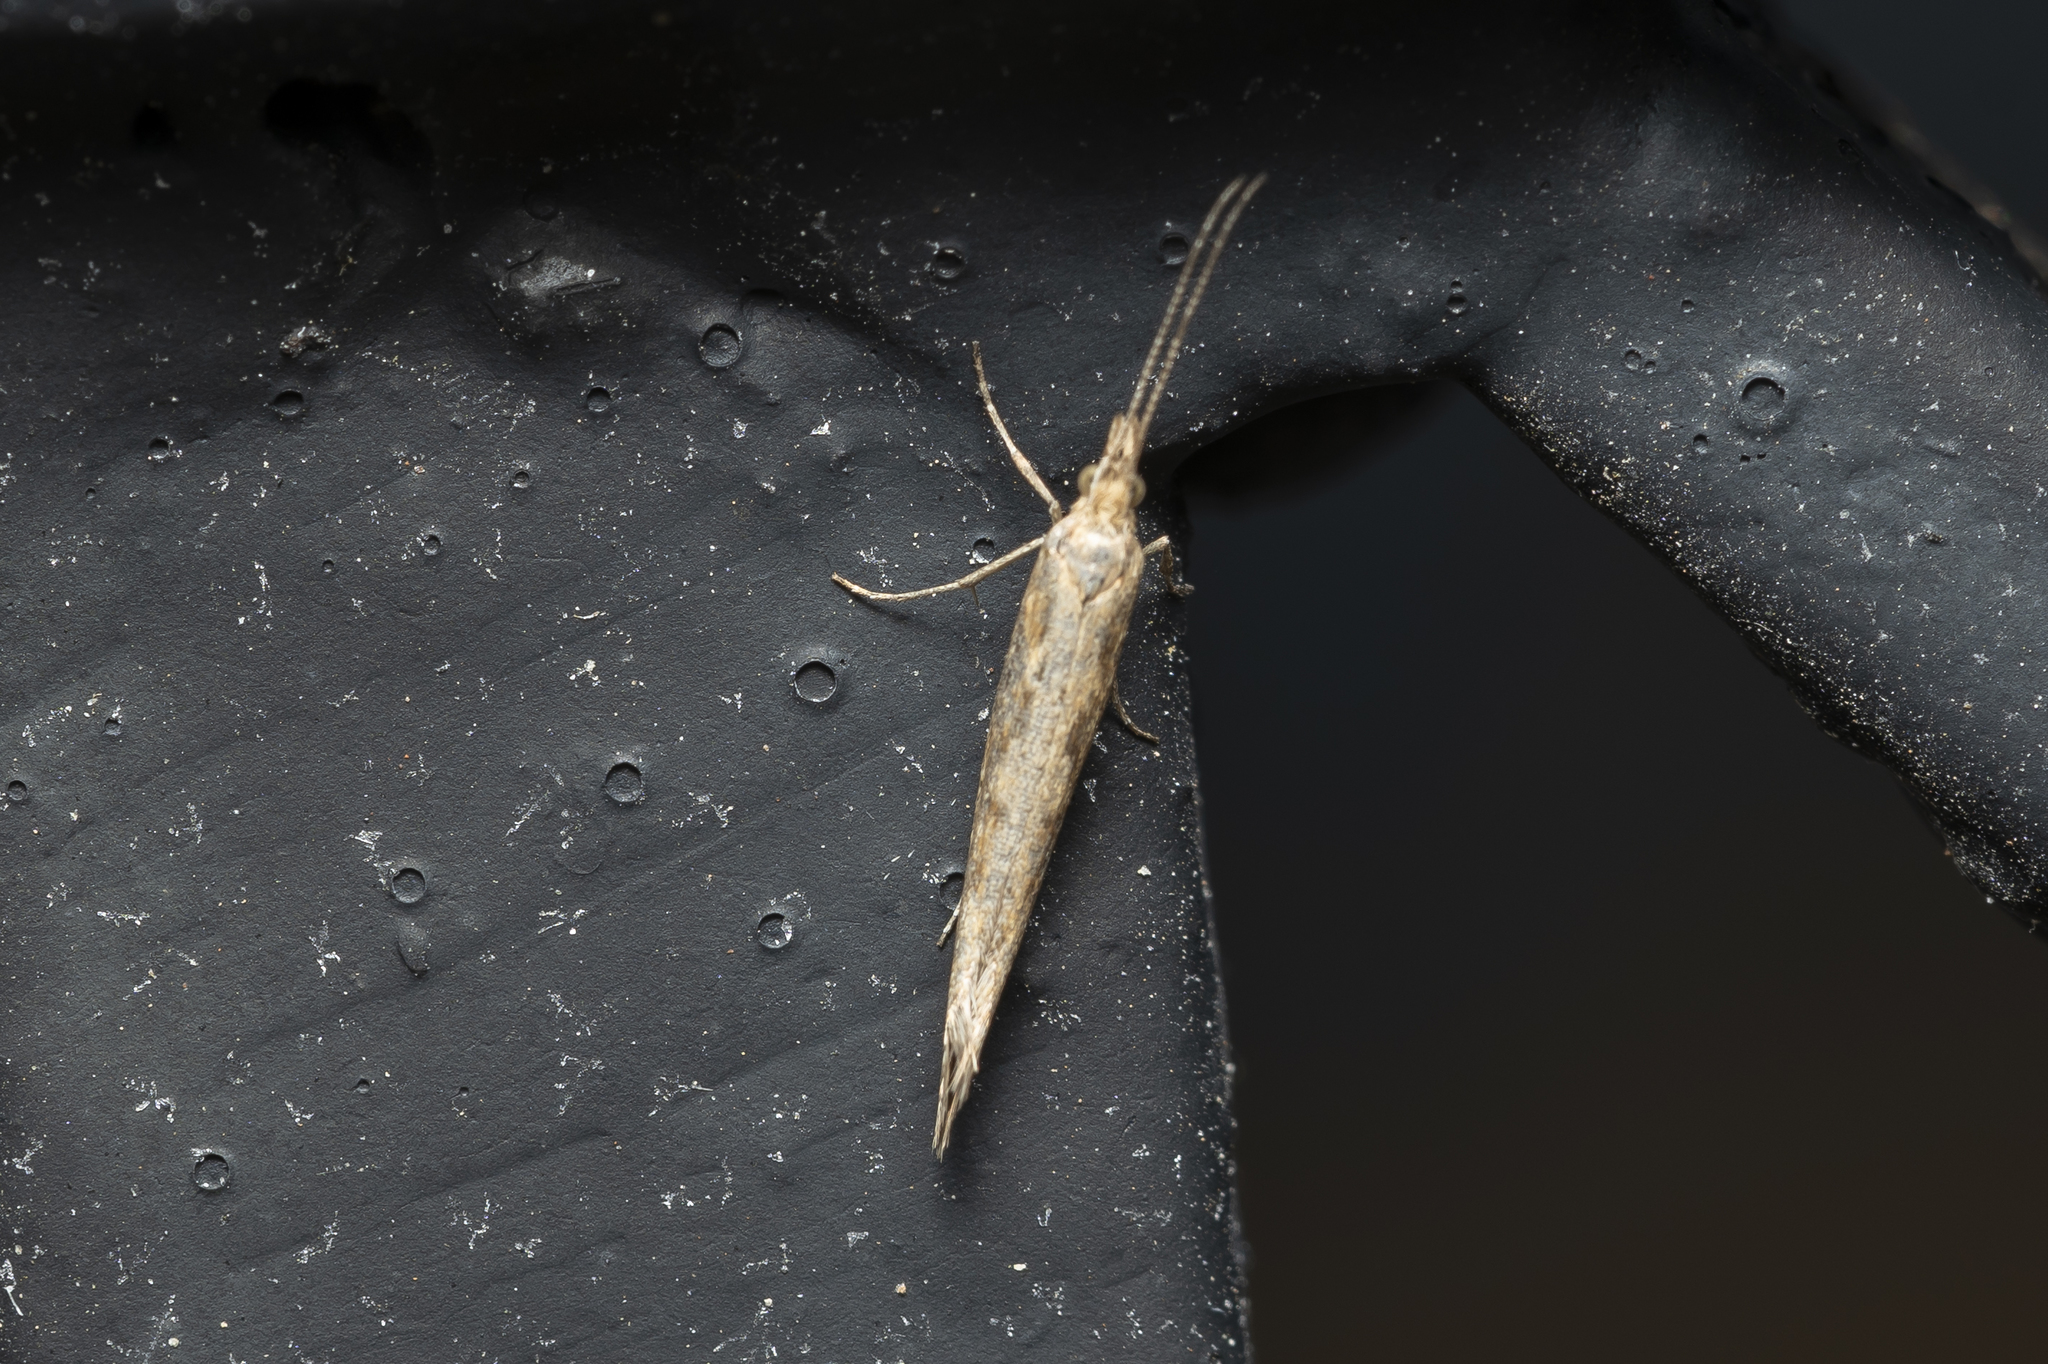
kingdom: Animalia
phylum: Arthropoda
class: Insecta
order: Lepidoptera
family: Plutellidae
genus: Plutella
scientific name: Plutella xylostella
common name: Diamond-back moth
